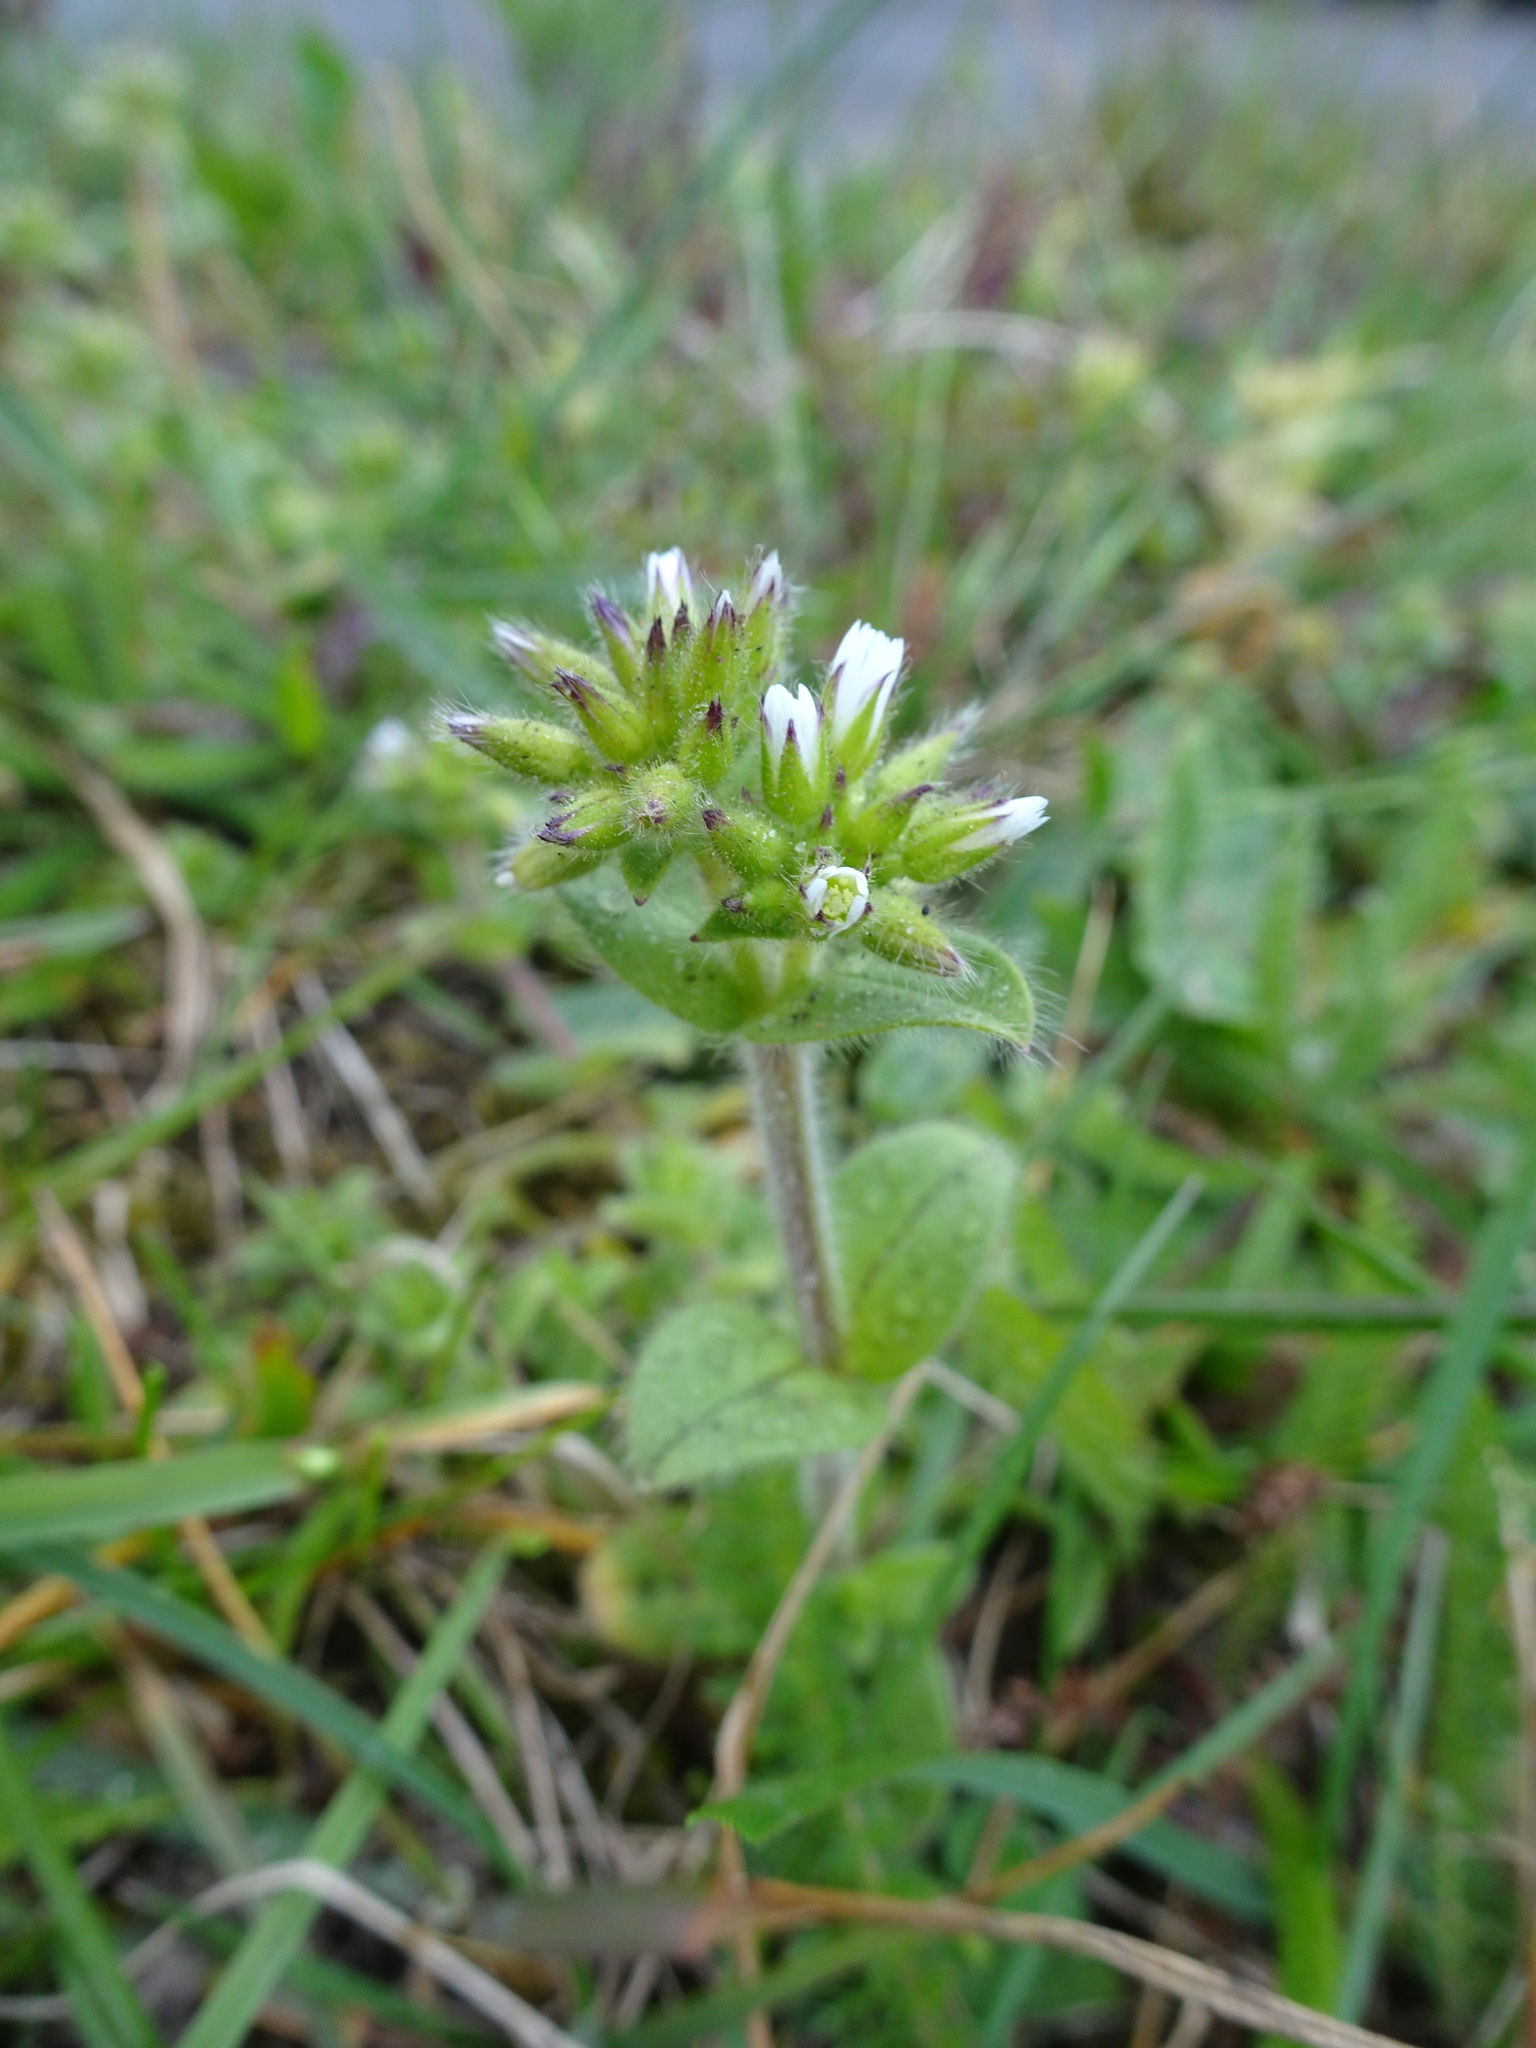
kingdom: Plantae
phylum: Tracheophyta
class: Magnoliopsida
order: Caryophyllales
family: Caryophyllaceae
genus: Cerastium
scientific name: Cerastium glomeratum
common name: Sticky chickweed
